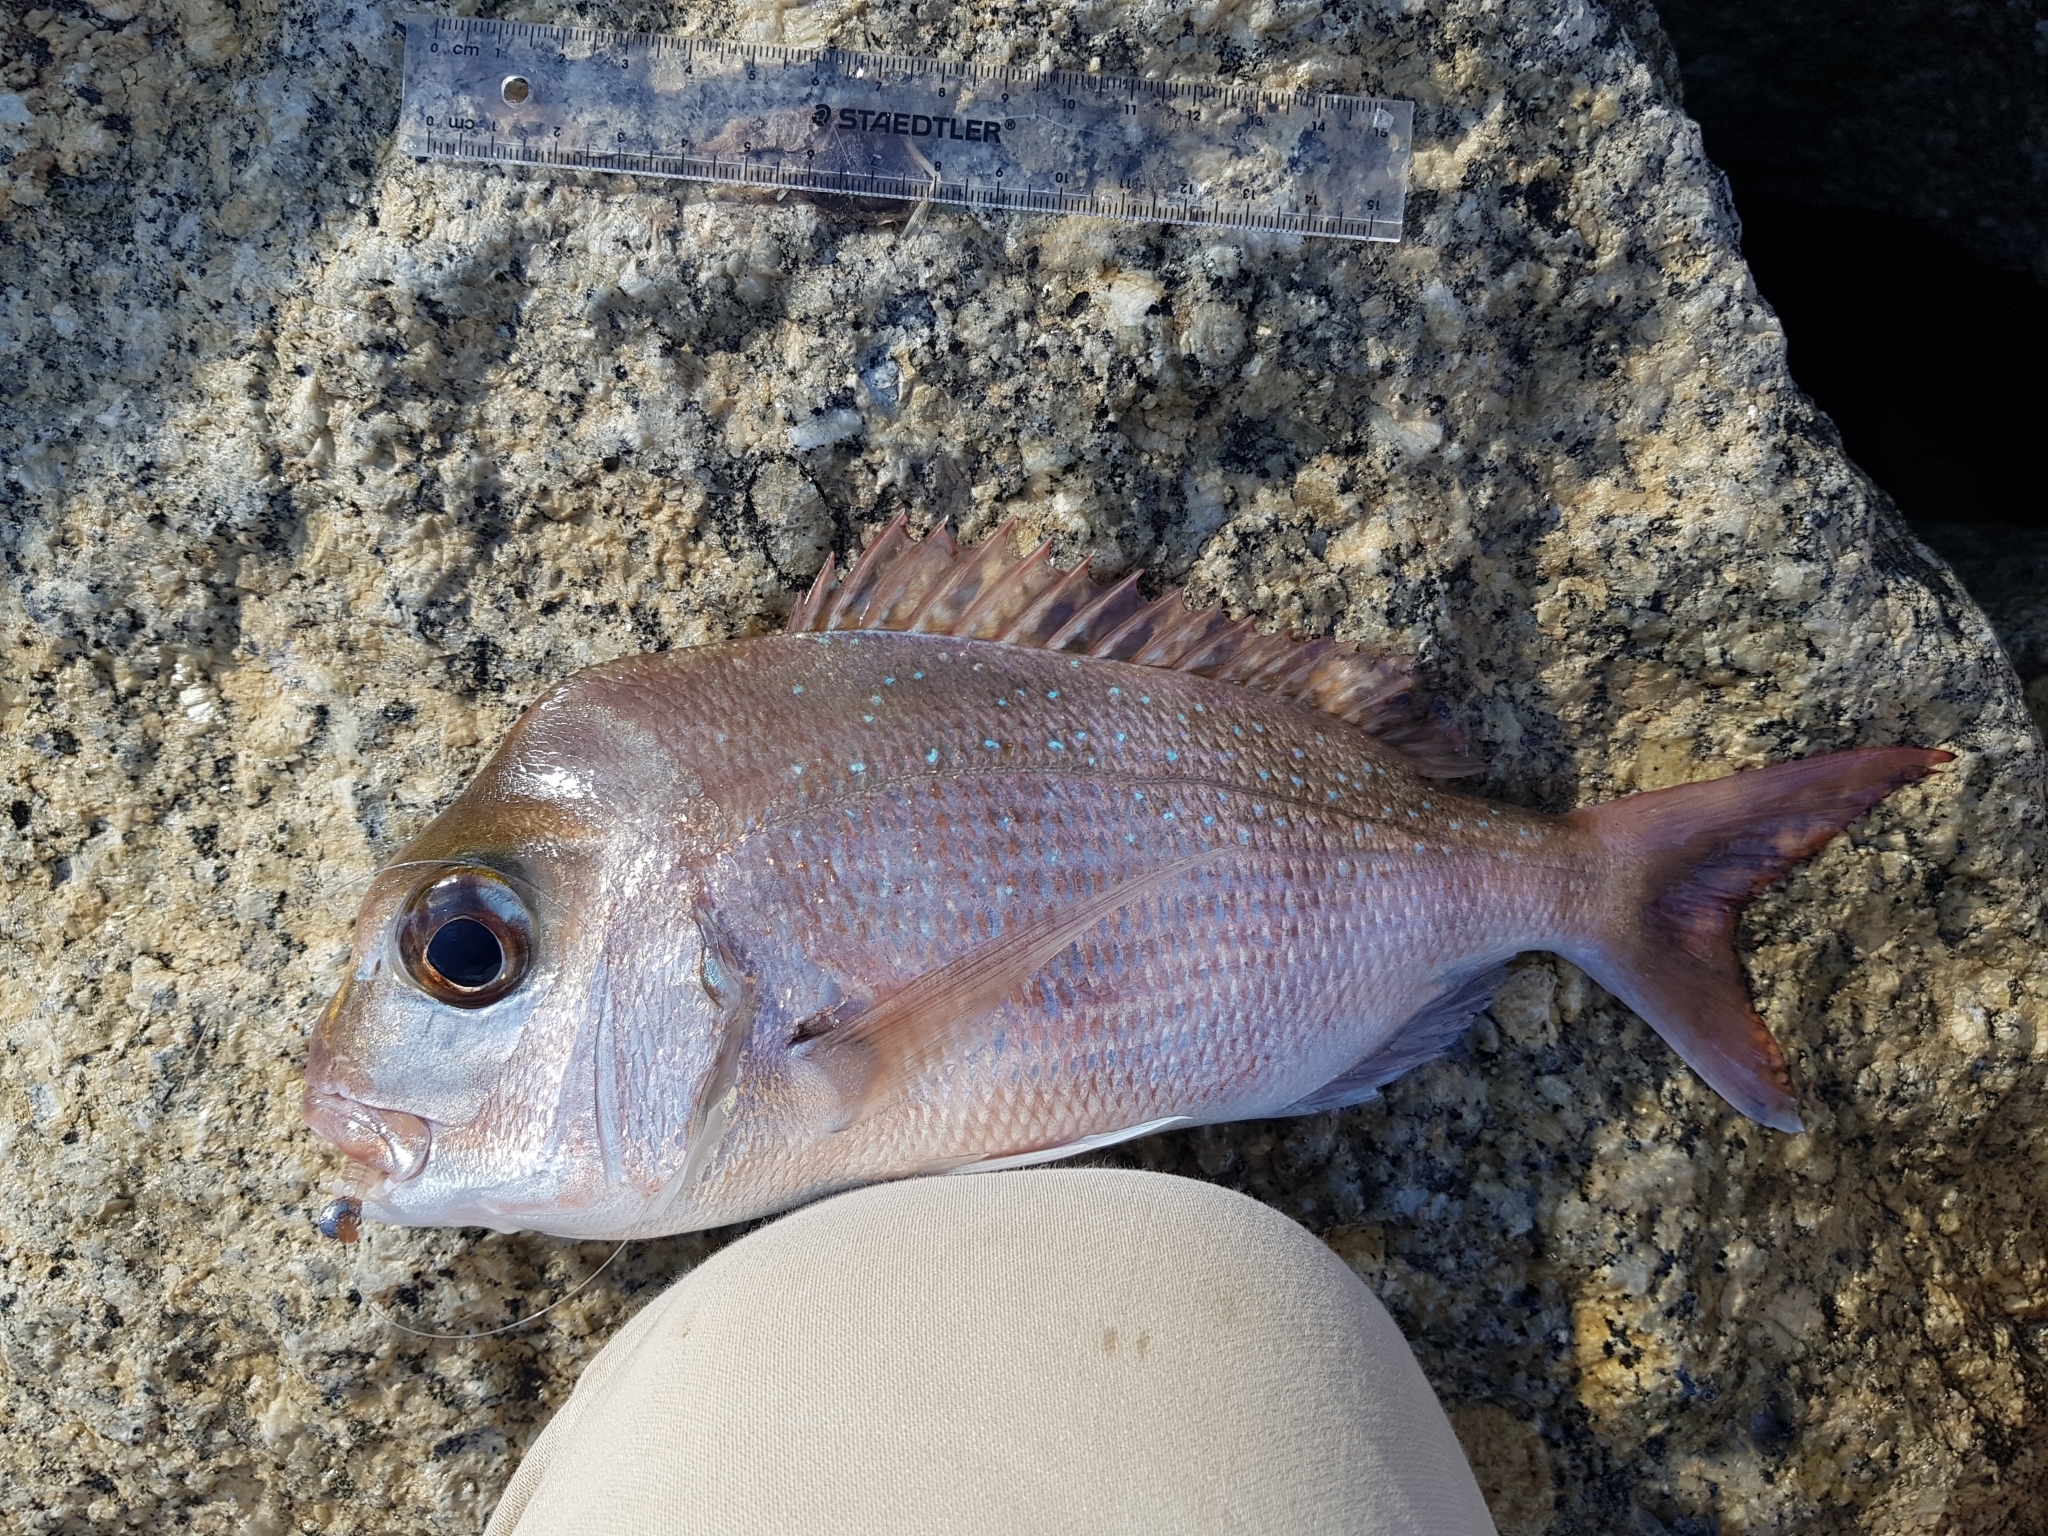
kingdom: Animalia
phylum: Chordata
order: Perciformes
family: Sparidae
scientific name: Sparidae
